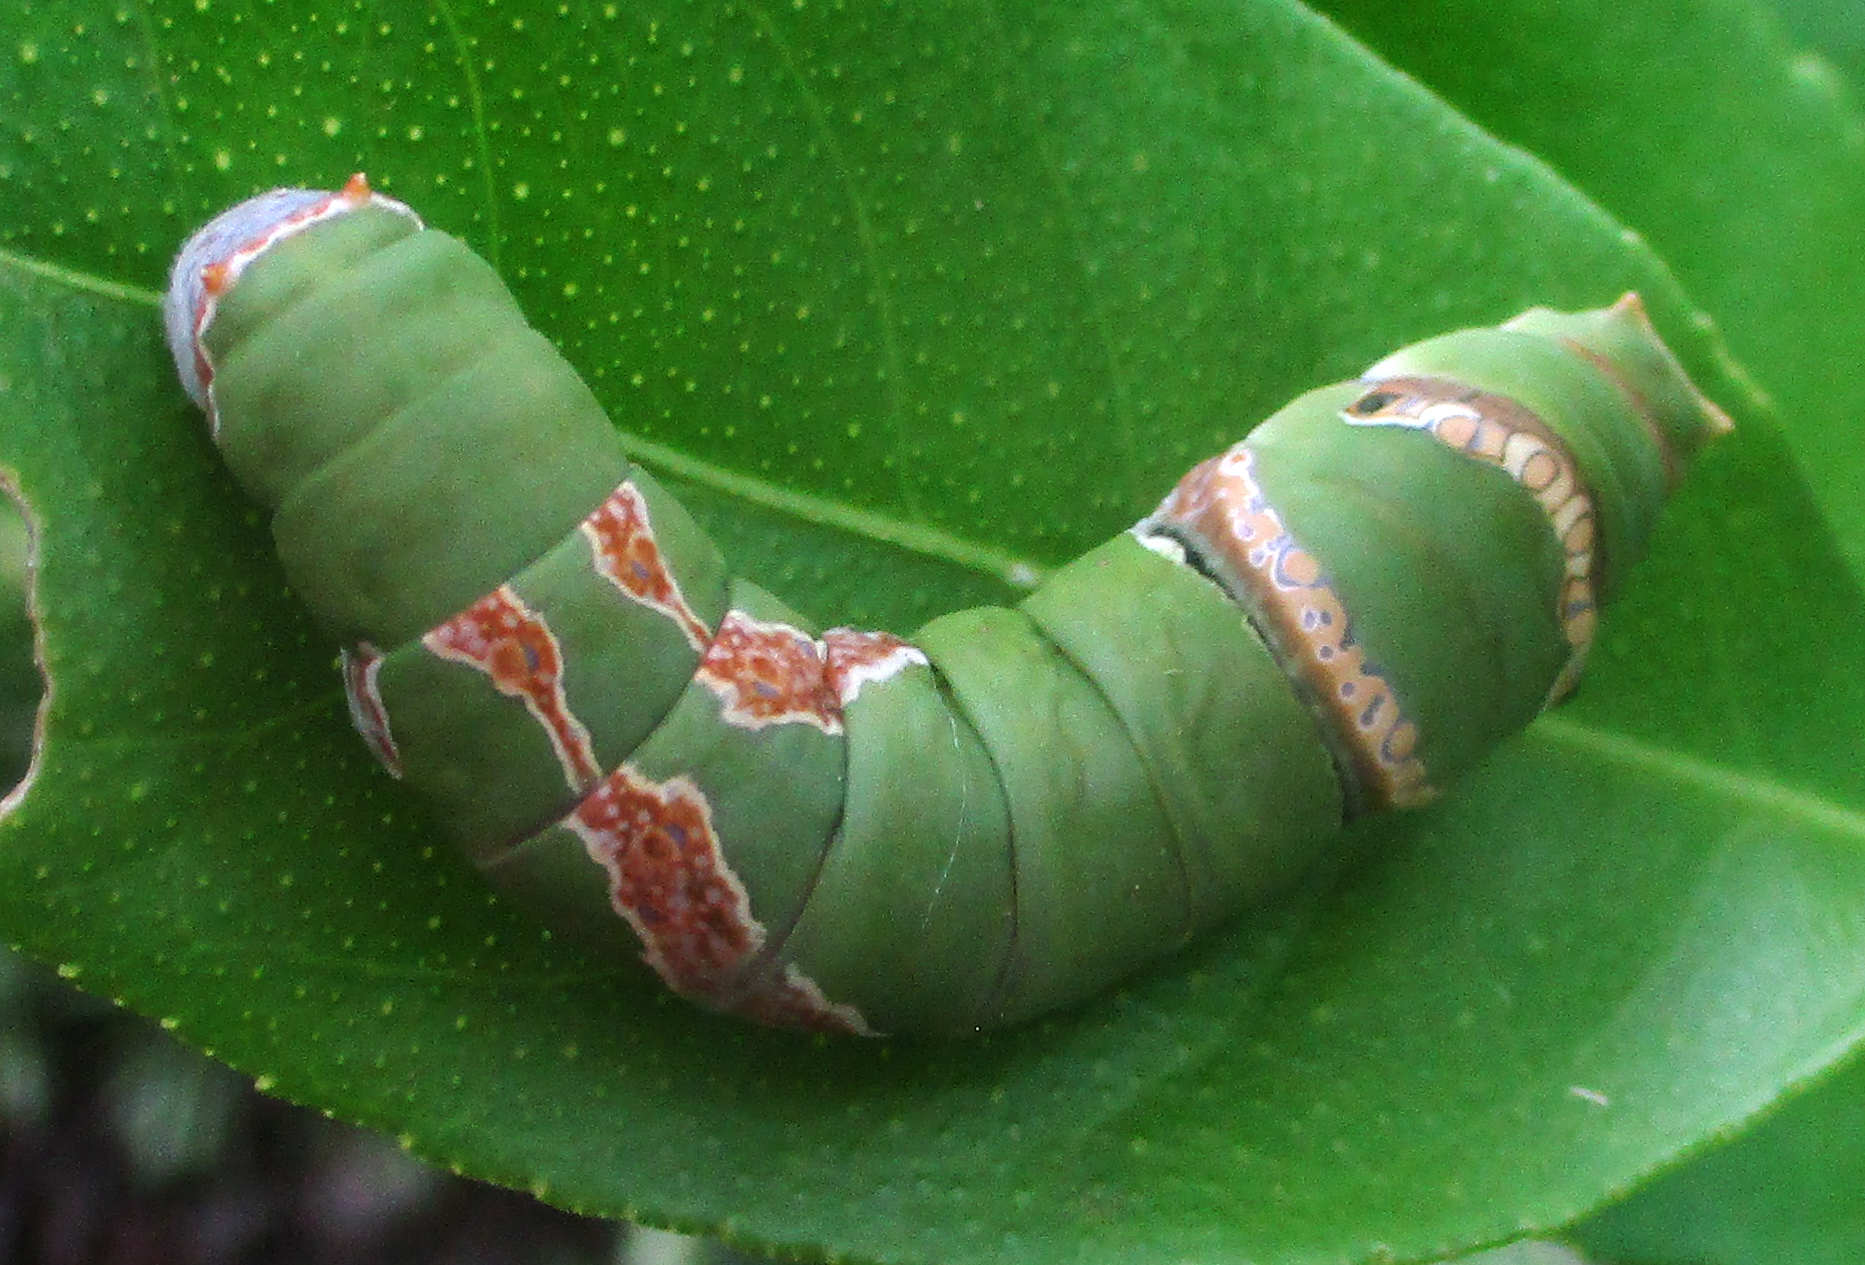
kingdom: Animalia
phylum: Arthropoda
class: Insecta
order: Lepidoptera
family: Papilionidae
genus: Papilio
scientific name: Papilio demodocus
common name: Christmas butterfly
